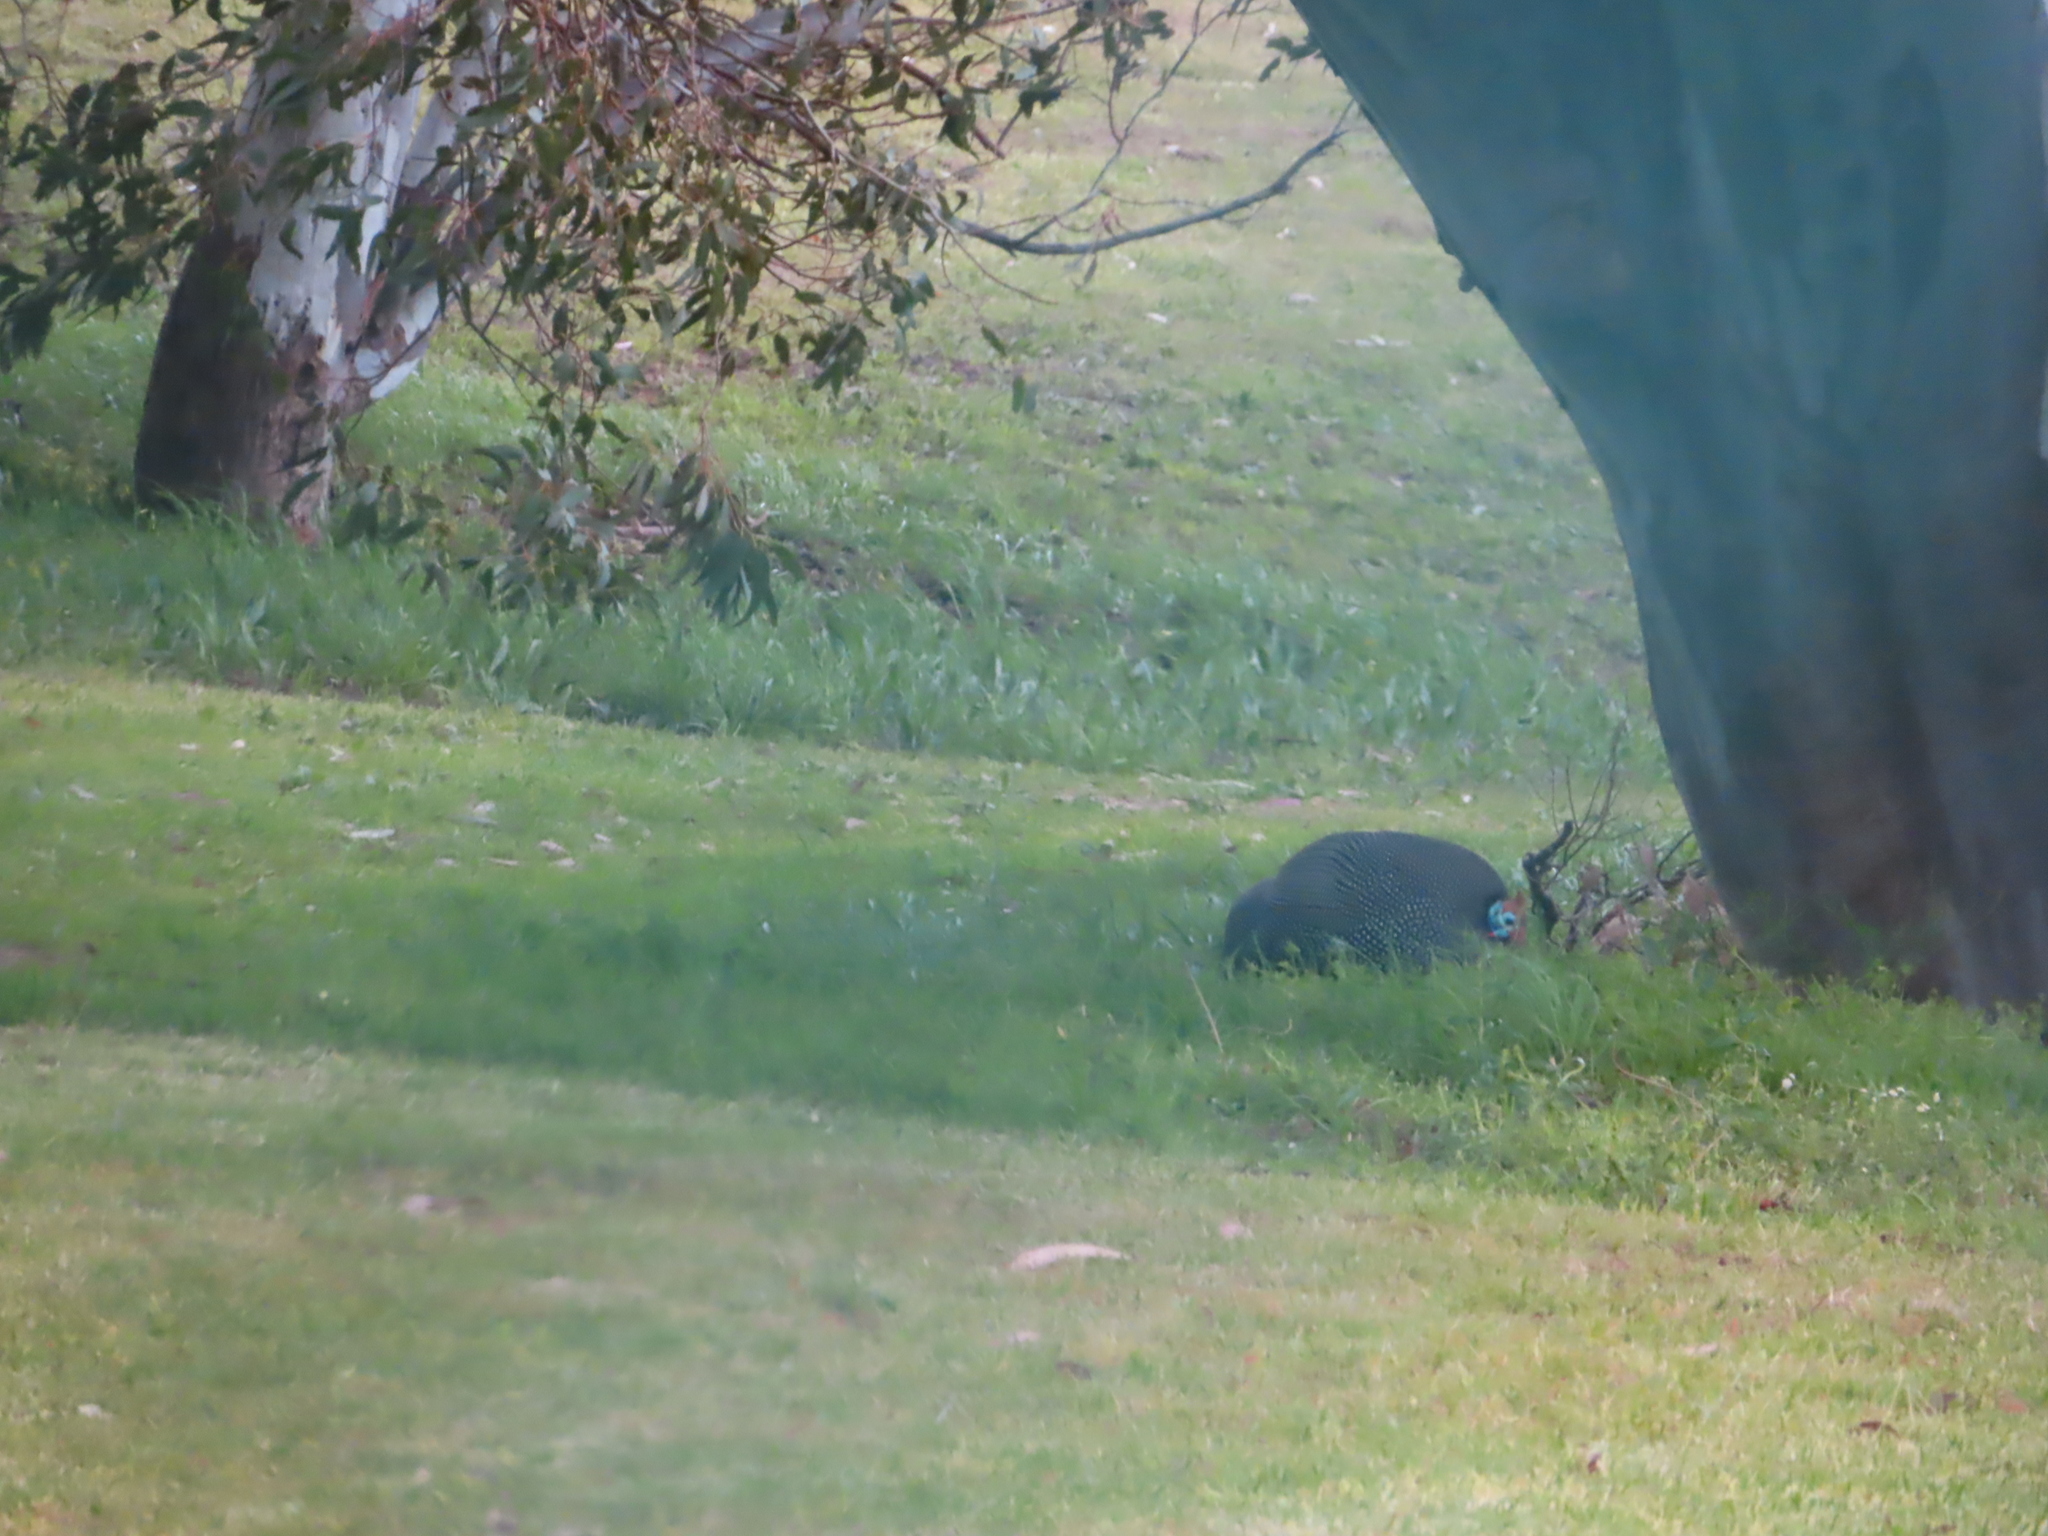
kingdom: Animalia
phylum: Chordata
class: Aves
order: Galliformes
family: Numididae
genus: Numida
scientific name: Numida meleagris
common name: Helmeted guineafowl
